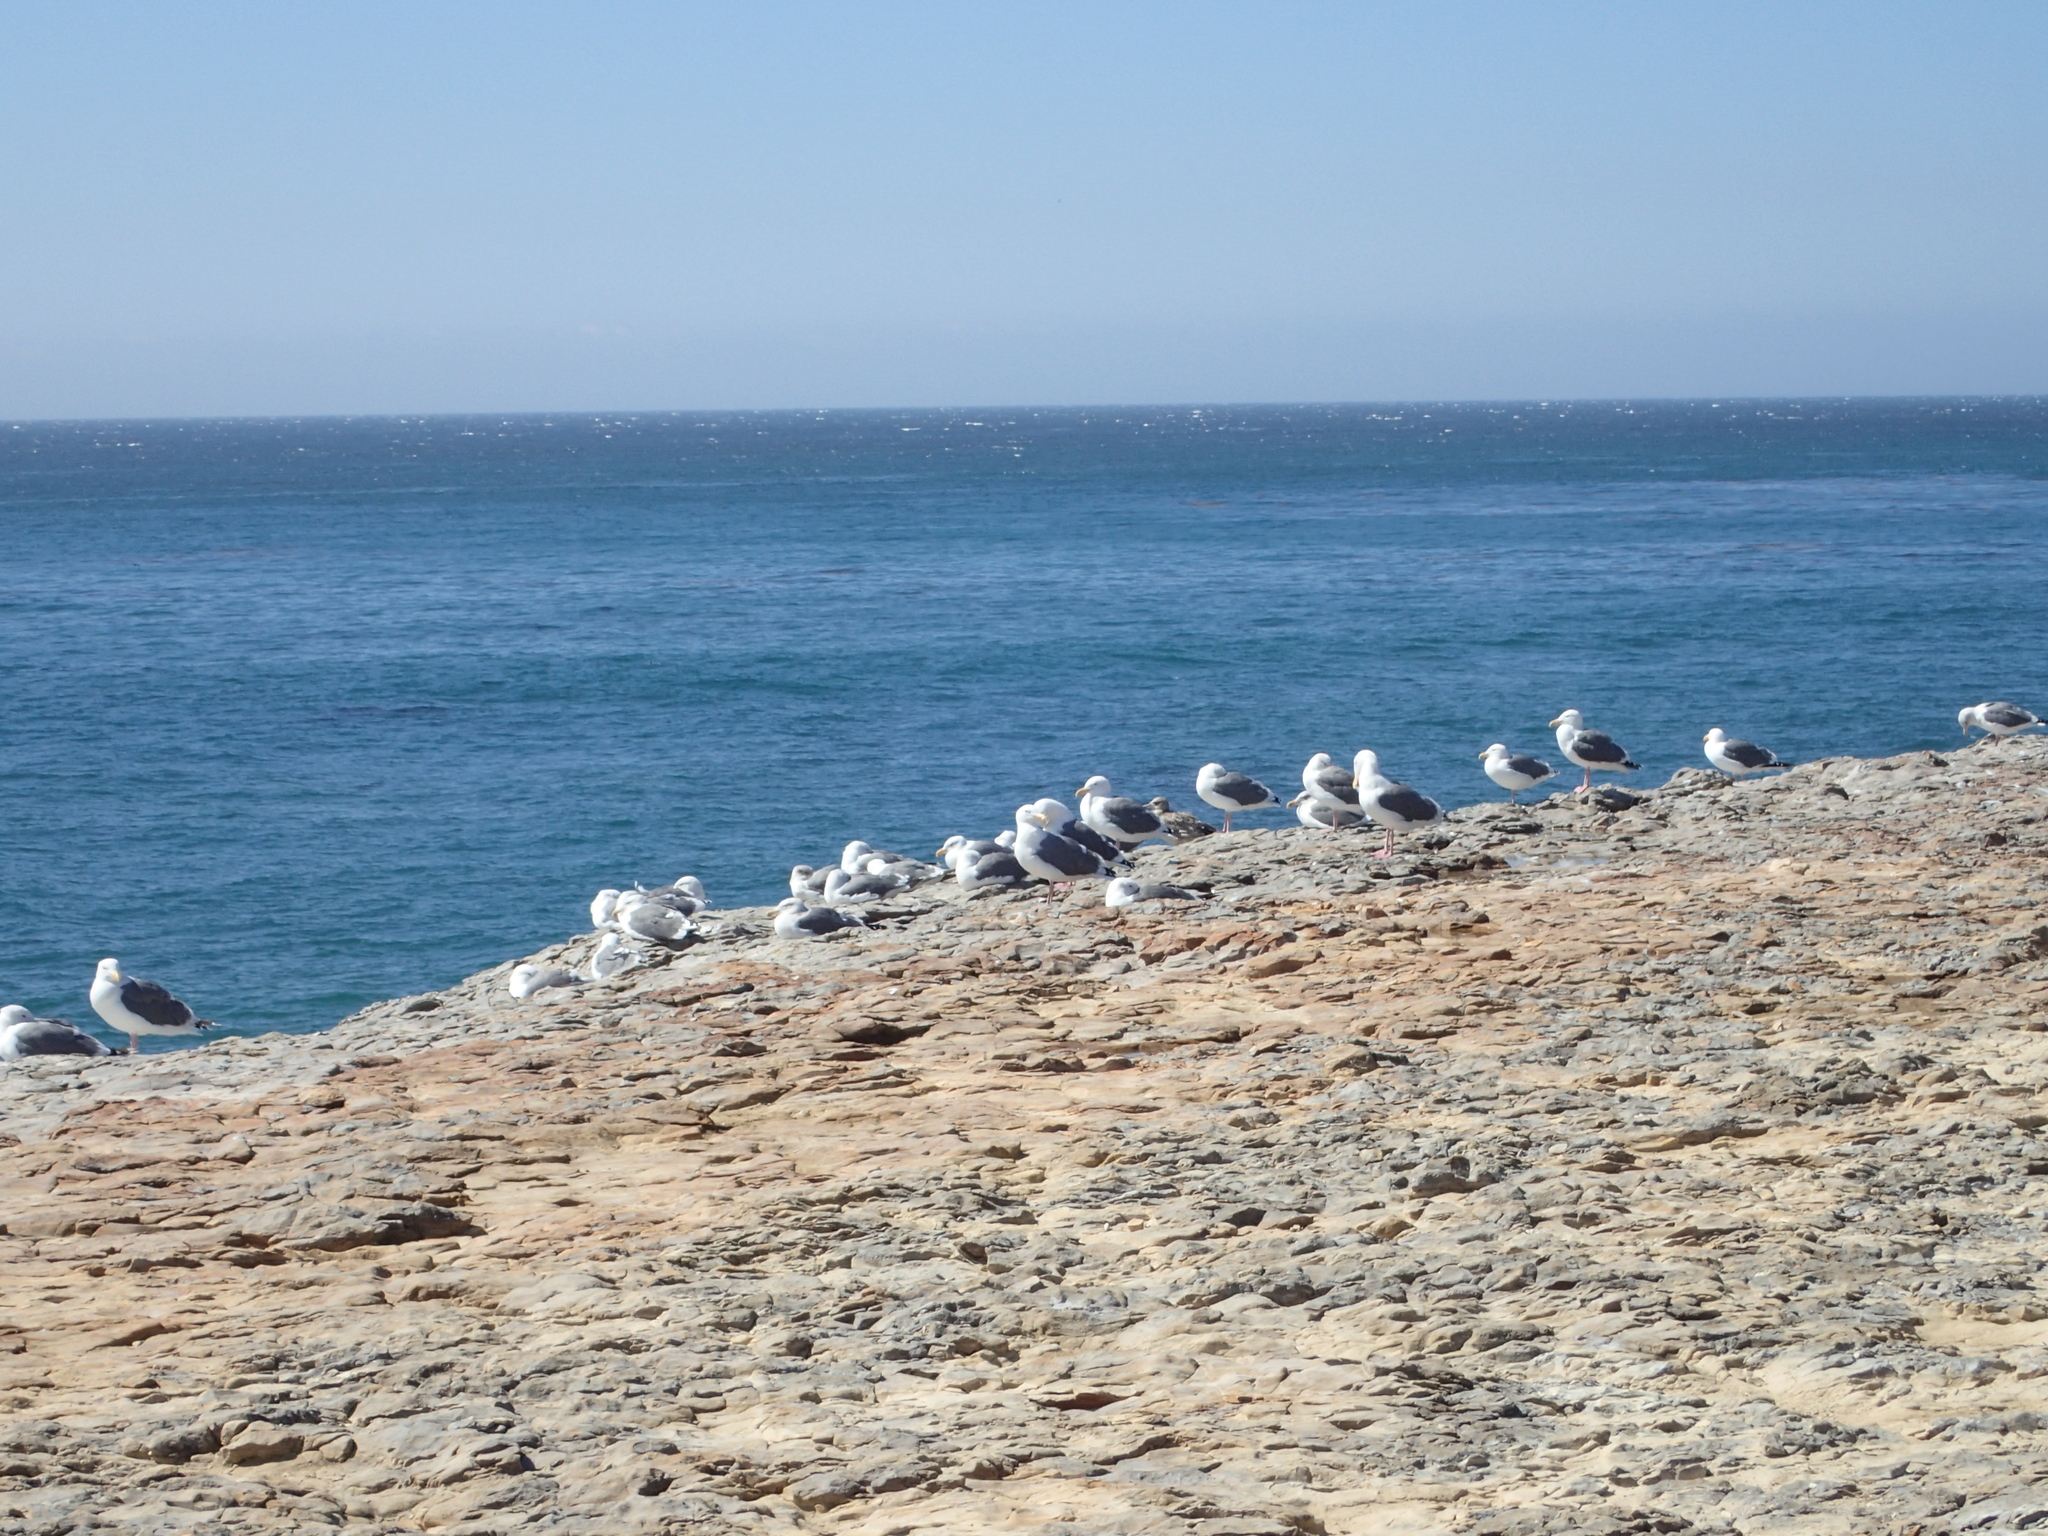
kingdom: Animalia
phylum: Chordata
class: Aves
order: Charadriiformes
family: Laridae
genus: Larus
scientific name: Larus occidentalis
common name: Western gull
